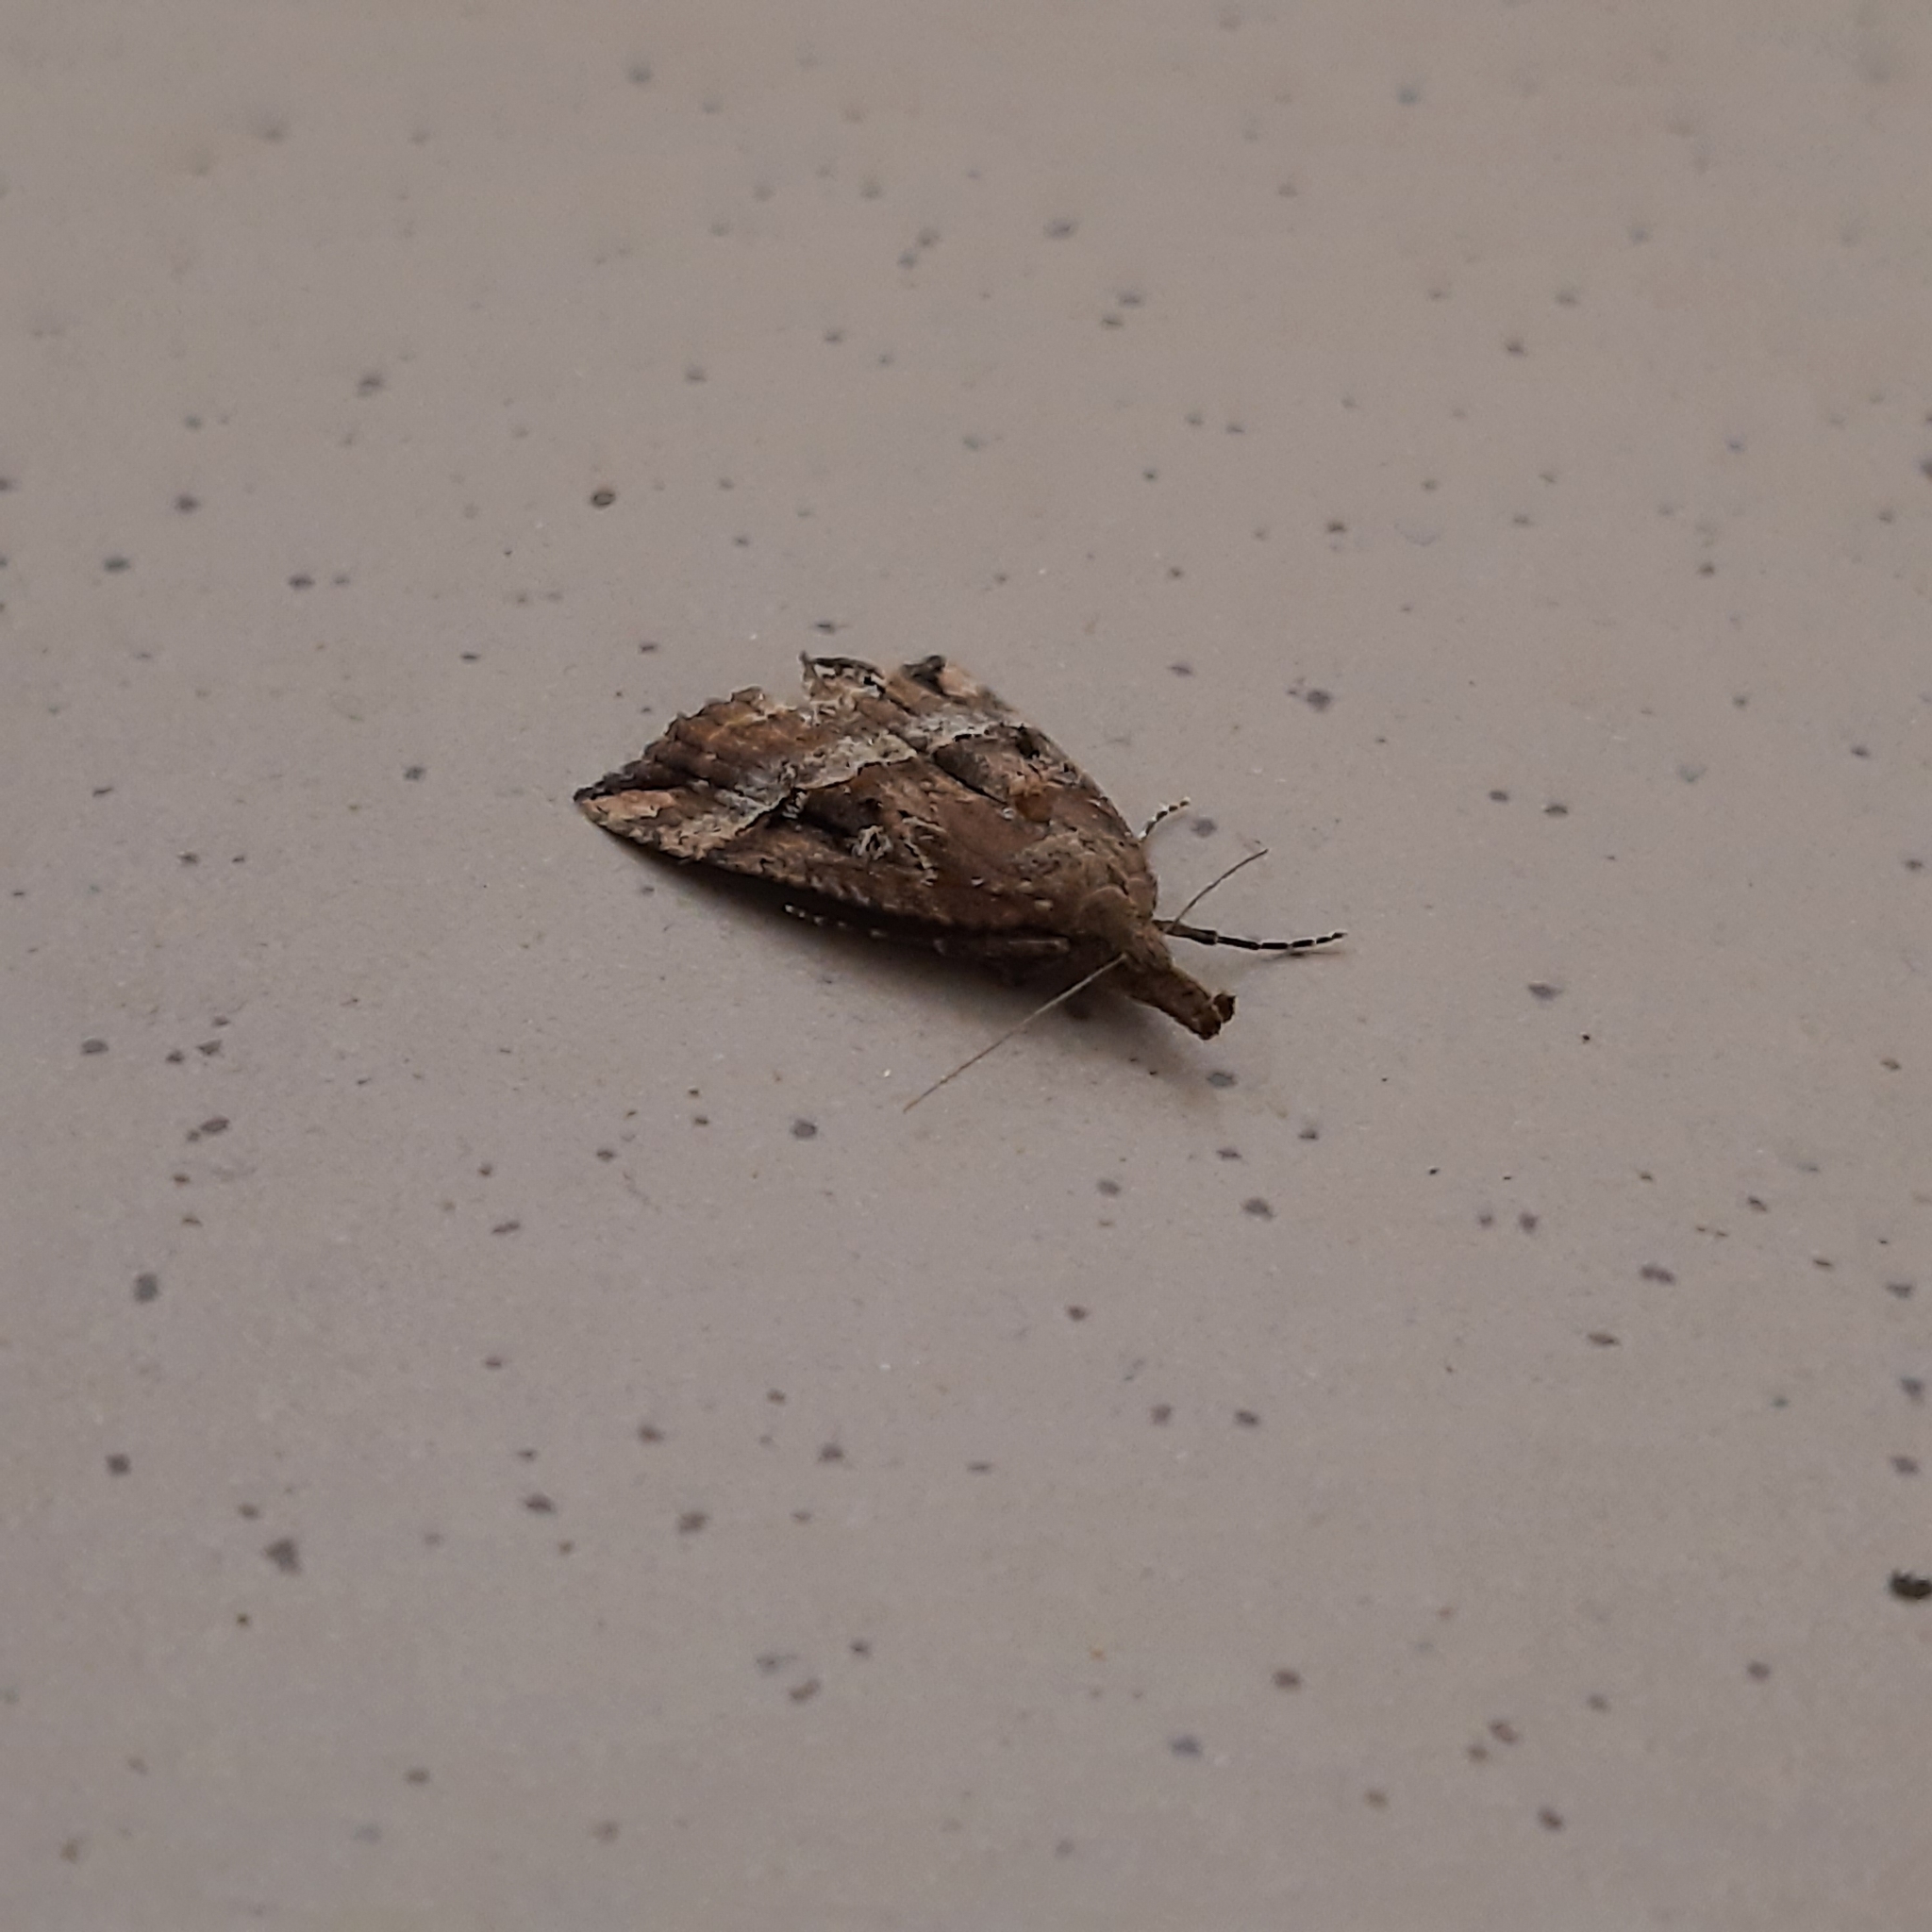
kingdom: Animalia
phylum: Arthropoda
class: Insecta
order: Lepidoptera
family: Erebidae
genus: Hypena
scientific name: Hypena rostralis
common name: Buttoned snout
